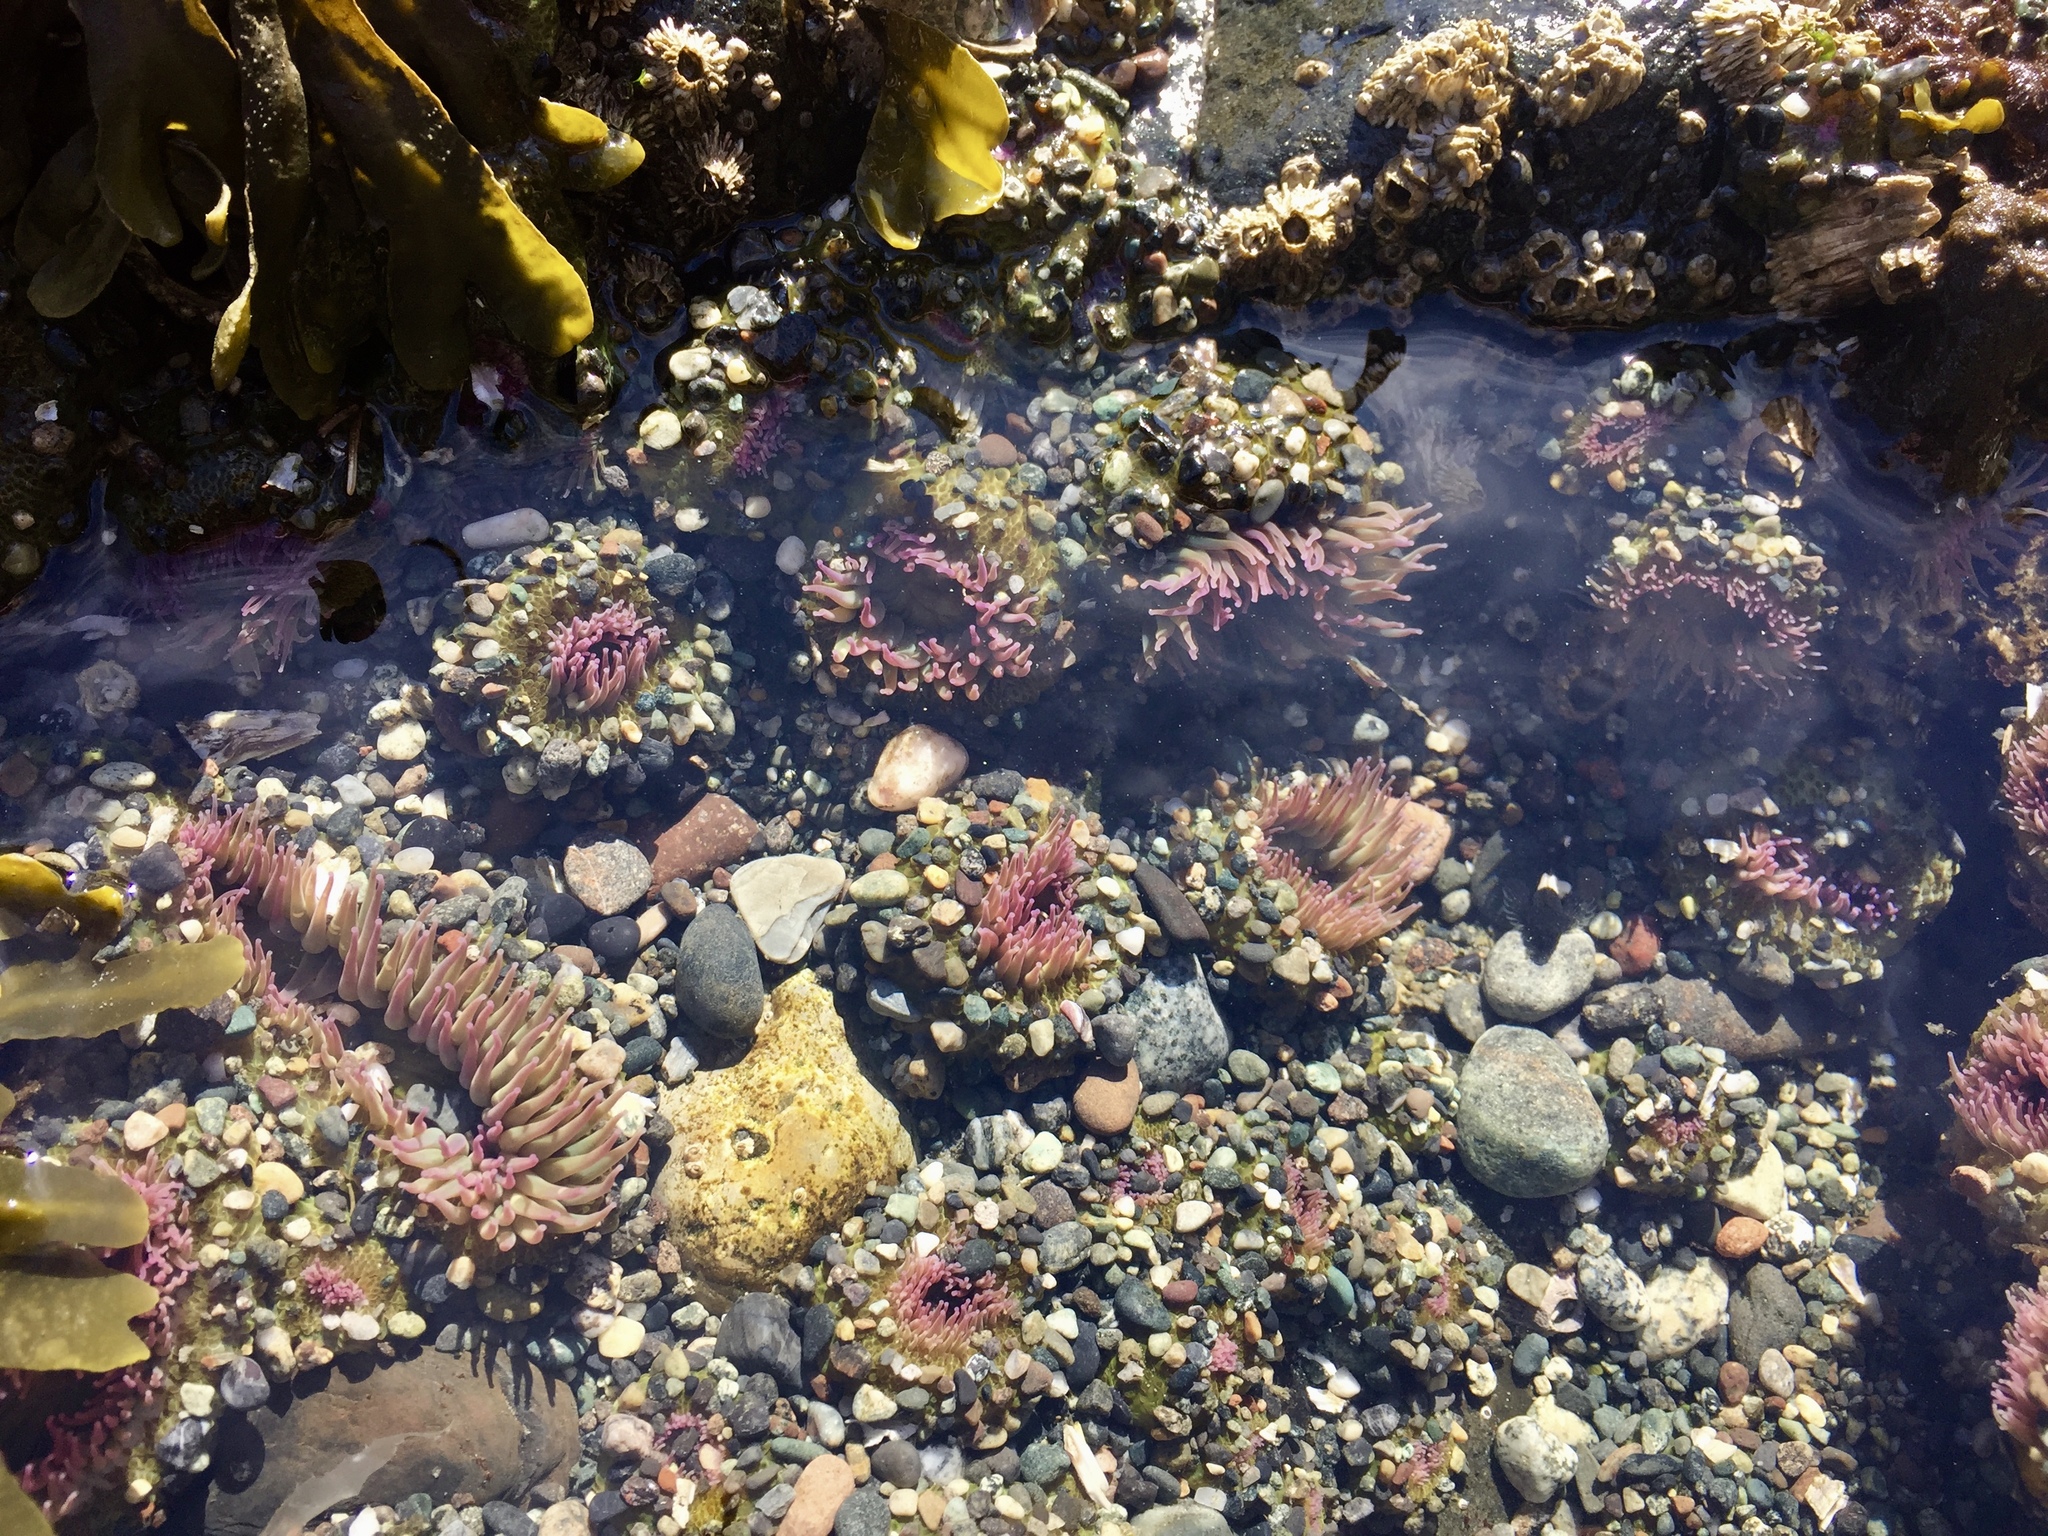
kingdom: Animalia
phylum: Cnidaria
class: Anthozoa
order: Actiniaria
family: Actiniidae
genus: Anthopleura
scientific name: Anthopleura elegantissima
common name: Clonal anemone
